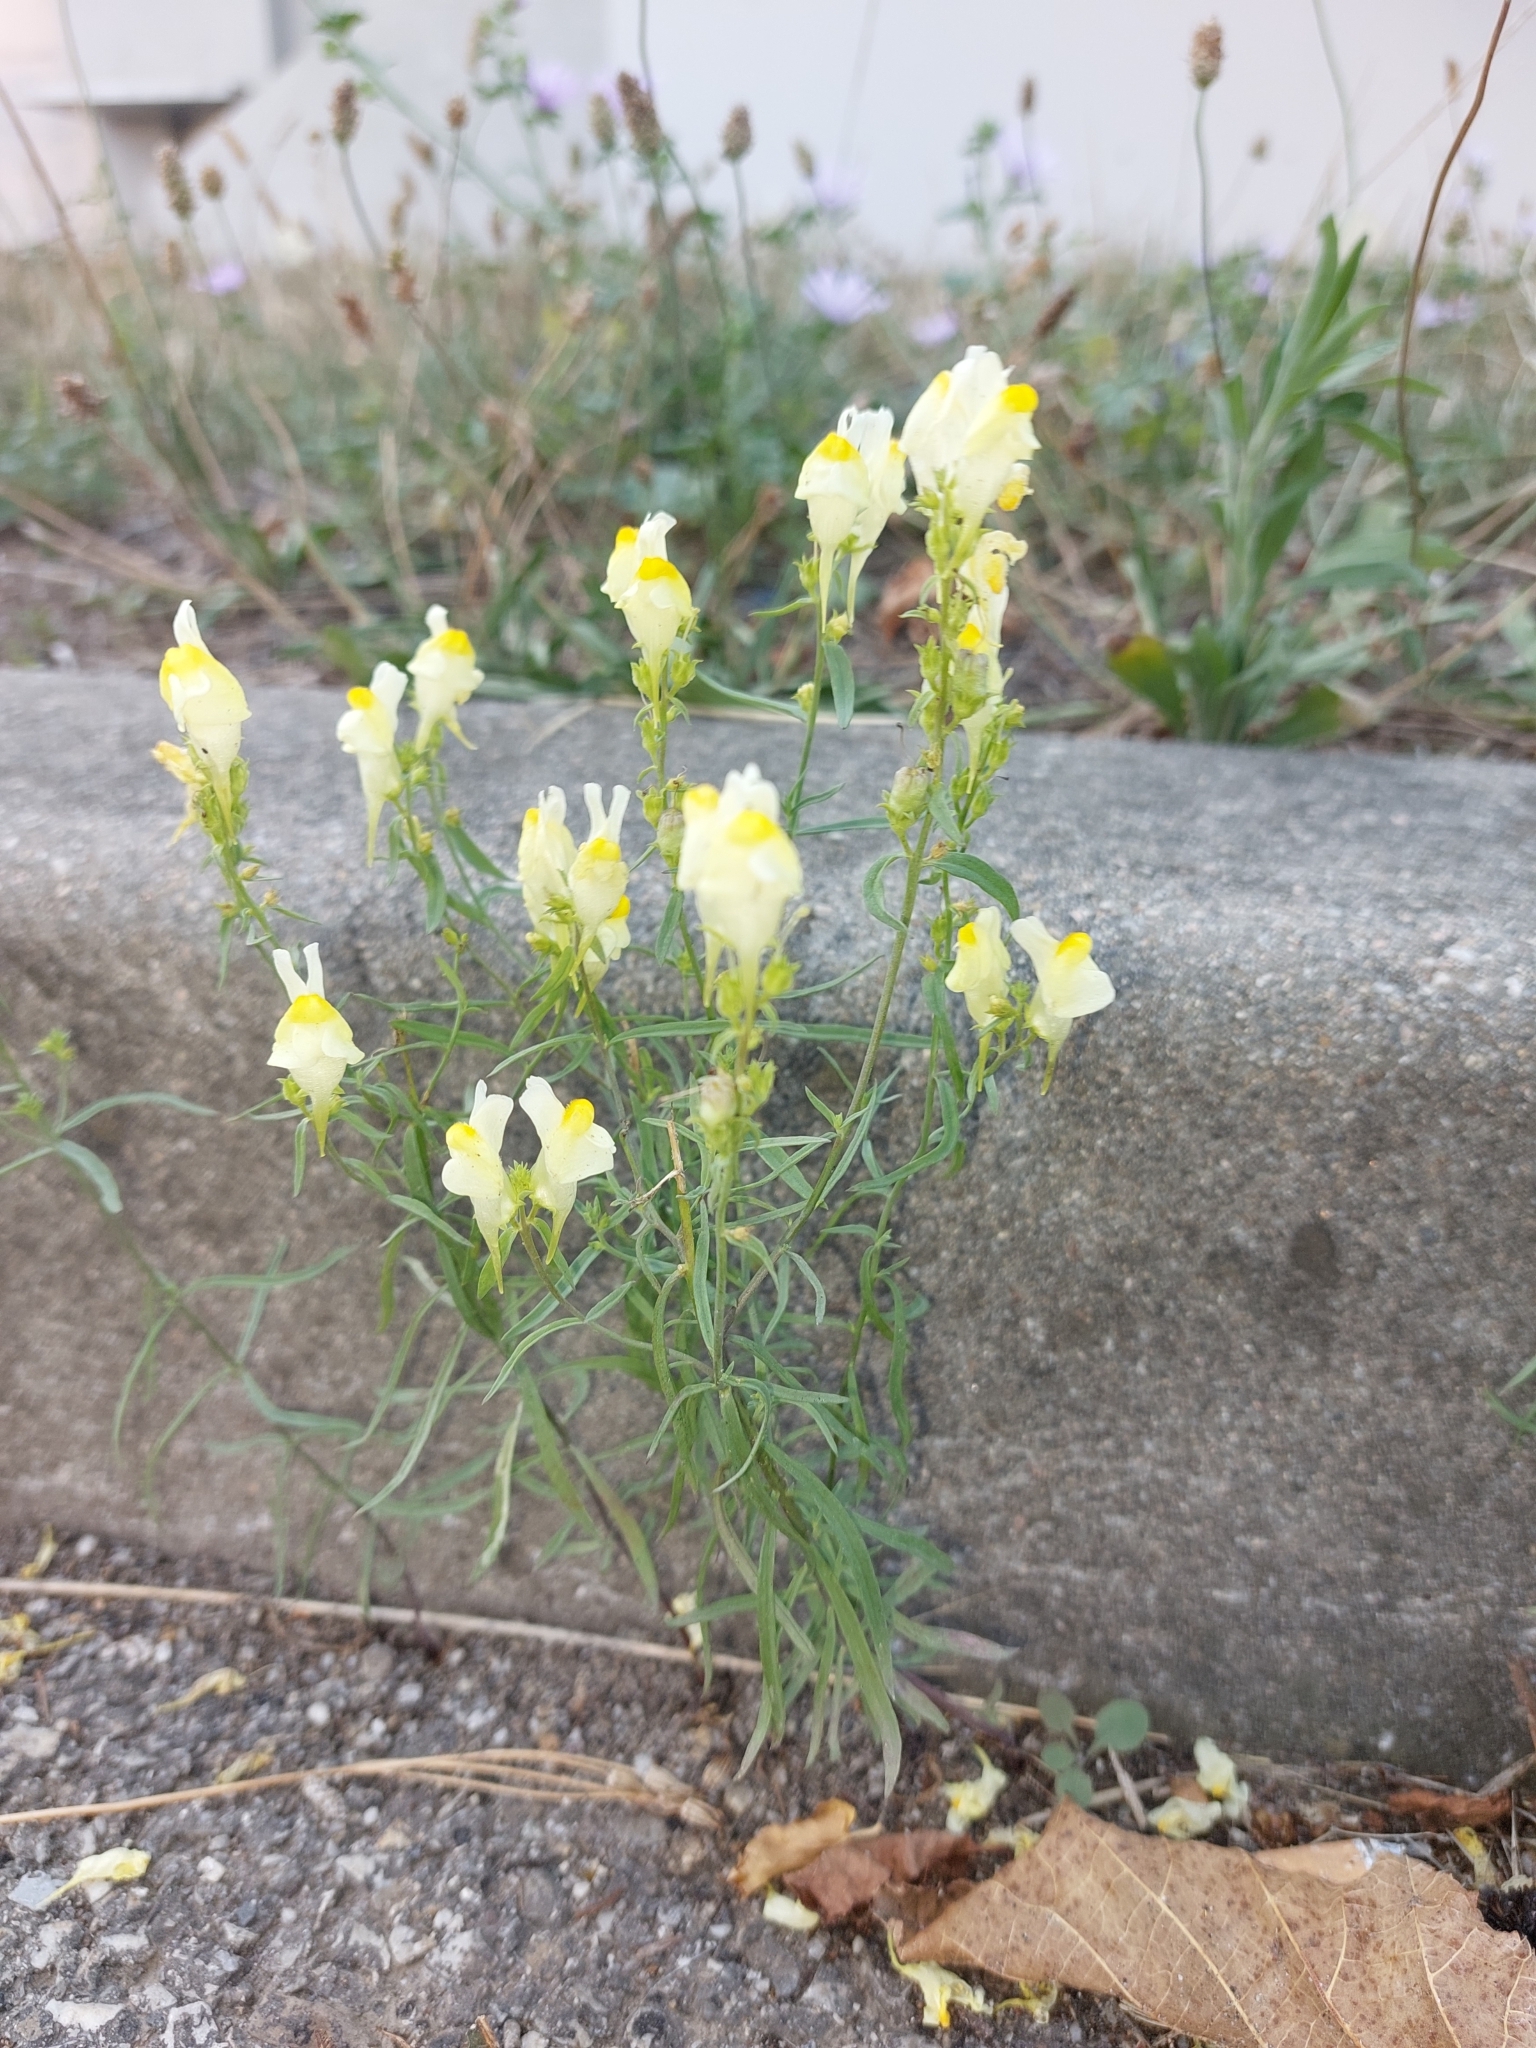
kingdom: Plantae
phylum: Tracheophyta
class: Magnoliopsida
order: Lamiales
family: Plantaginaceae
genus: Linaria
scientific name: Linaria vulgaris
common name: Butter and eggs
